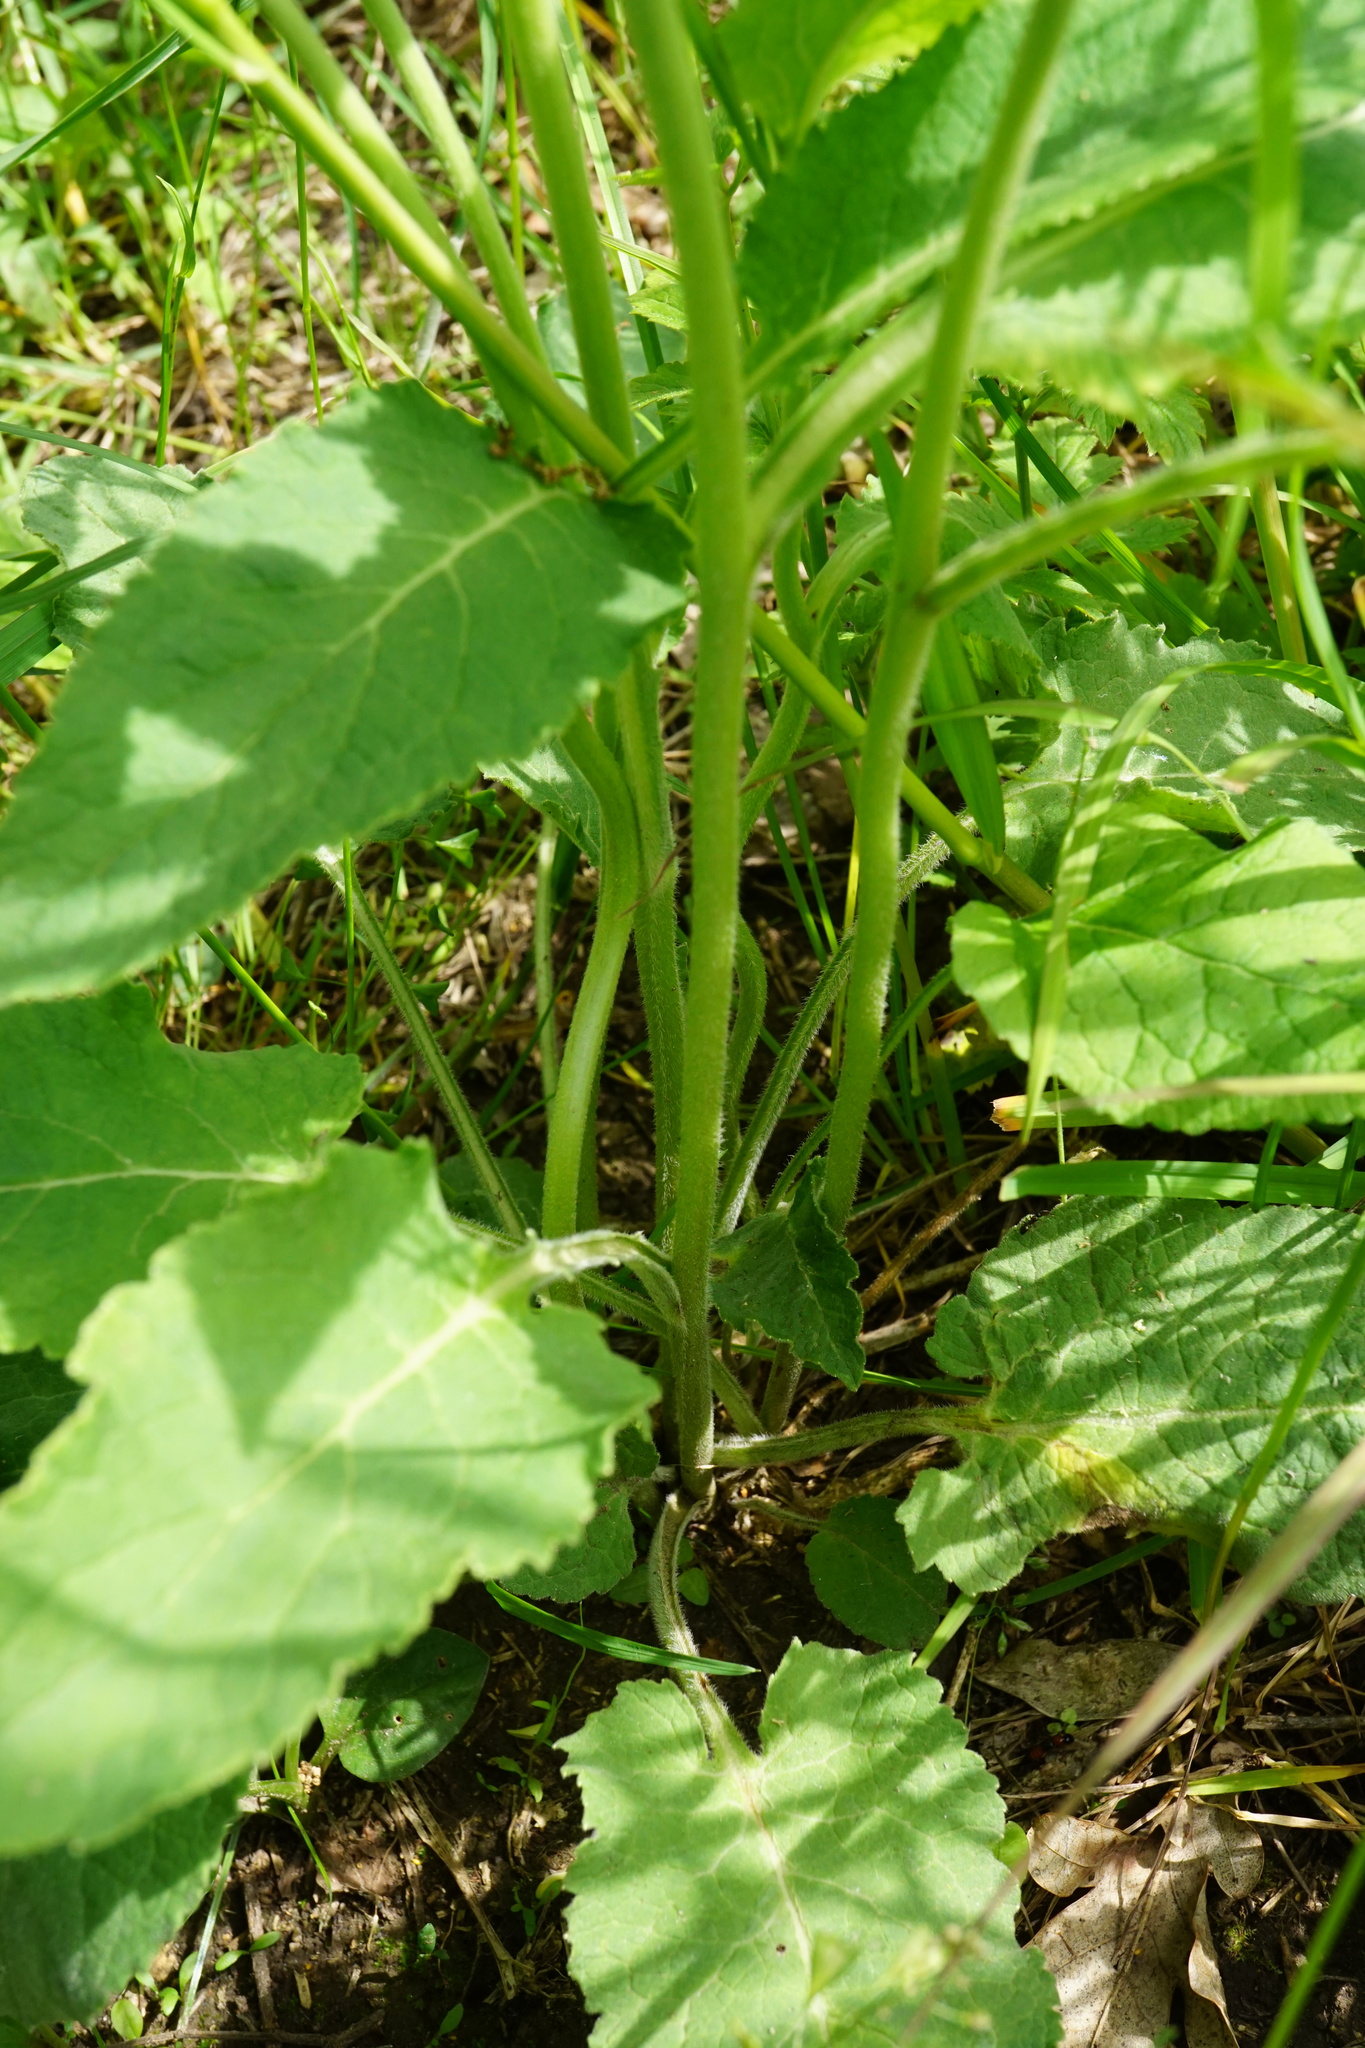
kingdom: Plantae
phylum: Tracheophyta
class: Magnoliopsida
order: Asterales
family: Campanulaceae
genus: Campanula
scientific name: Campanula bononiensis
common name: Pale bellflower
